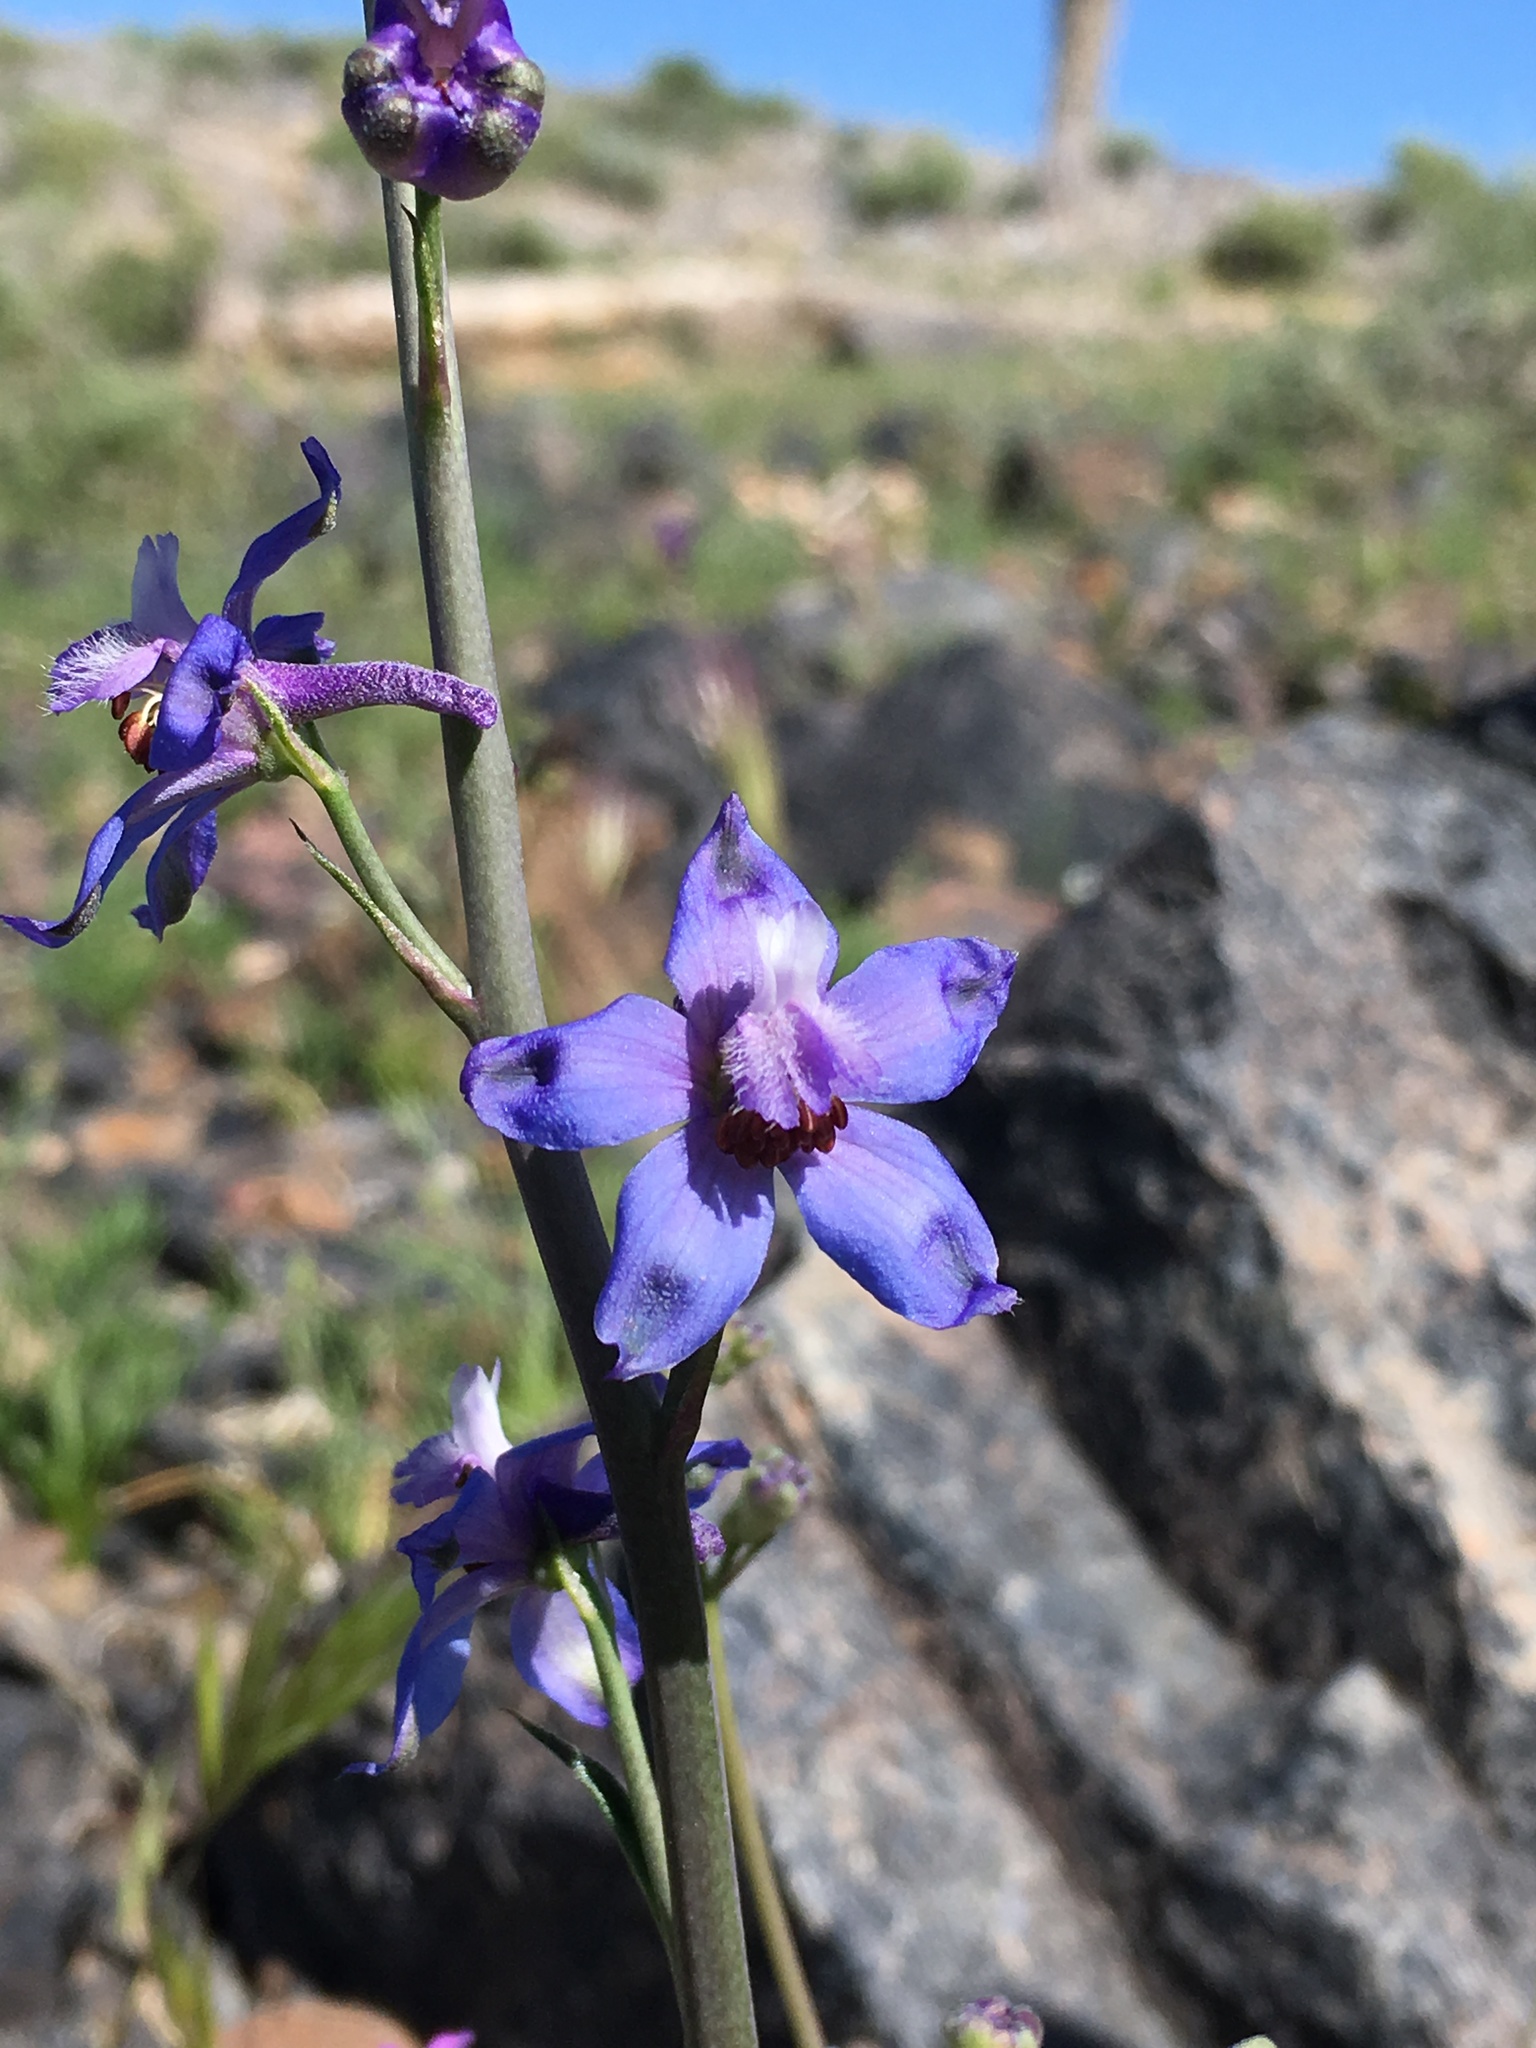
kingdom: Plantae
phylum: Tracheophyta
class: Magnoliopsida
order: Ranunculales
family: Ranunculaceae
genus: Delphinium
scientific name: Delphinium parishii
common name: Apache larkspur
